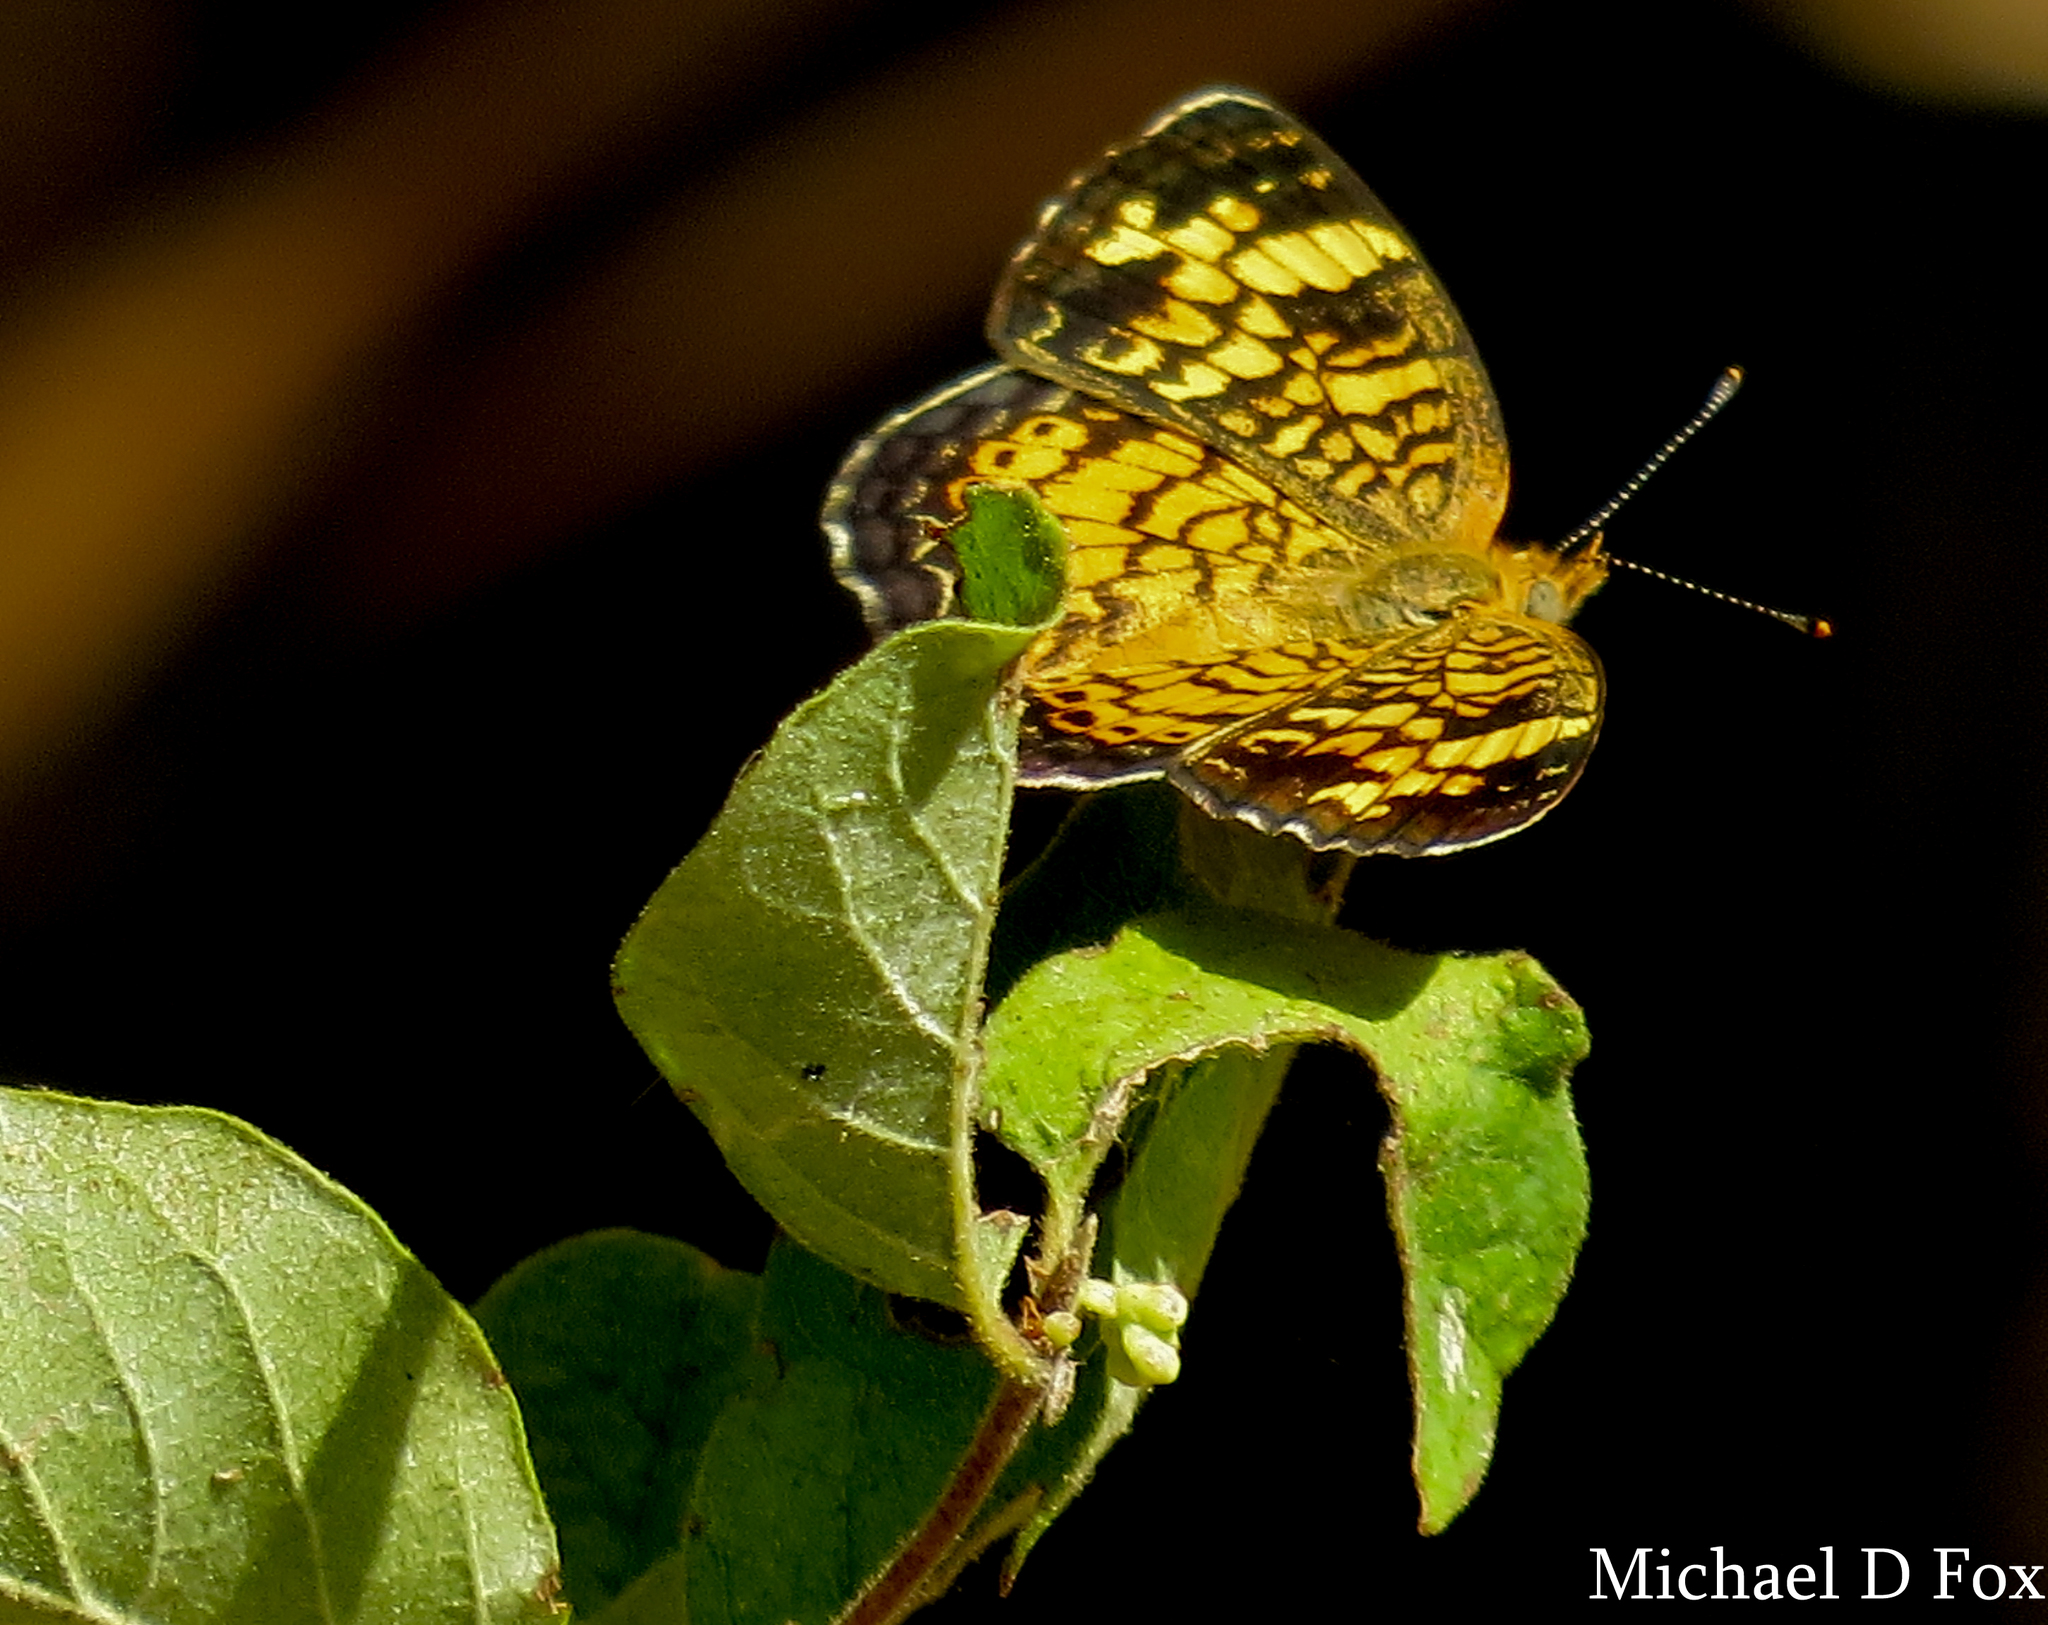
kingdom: Animalia
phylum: Arthropoda
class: Insecta
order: Lepidoptera
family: Nymphalidae
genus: Phyciodes
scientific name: Phyciodes tharos
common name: Pearl crescent
